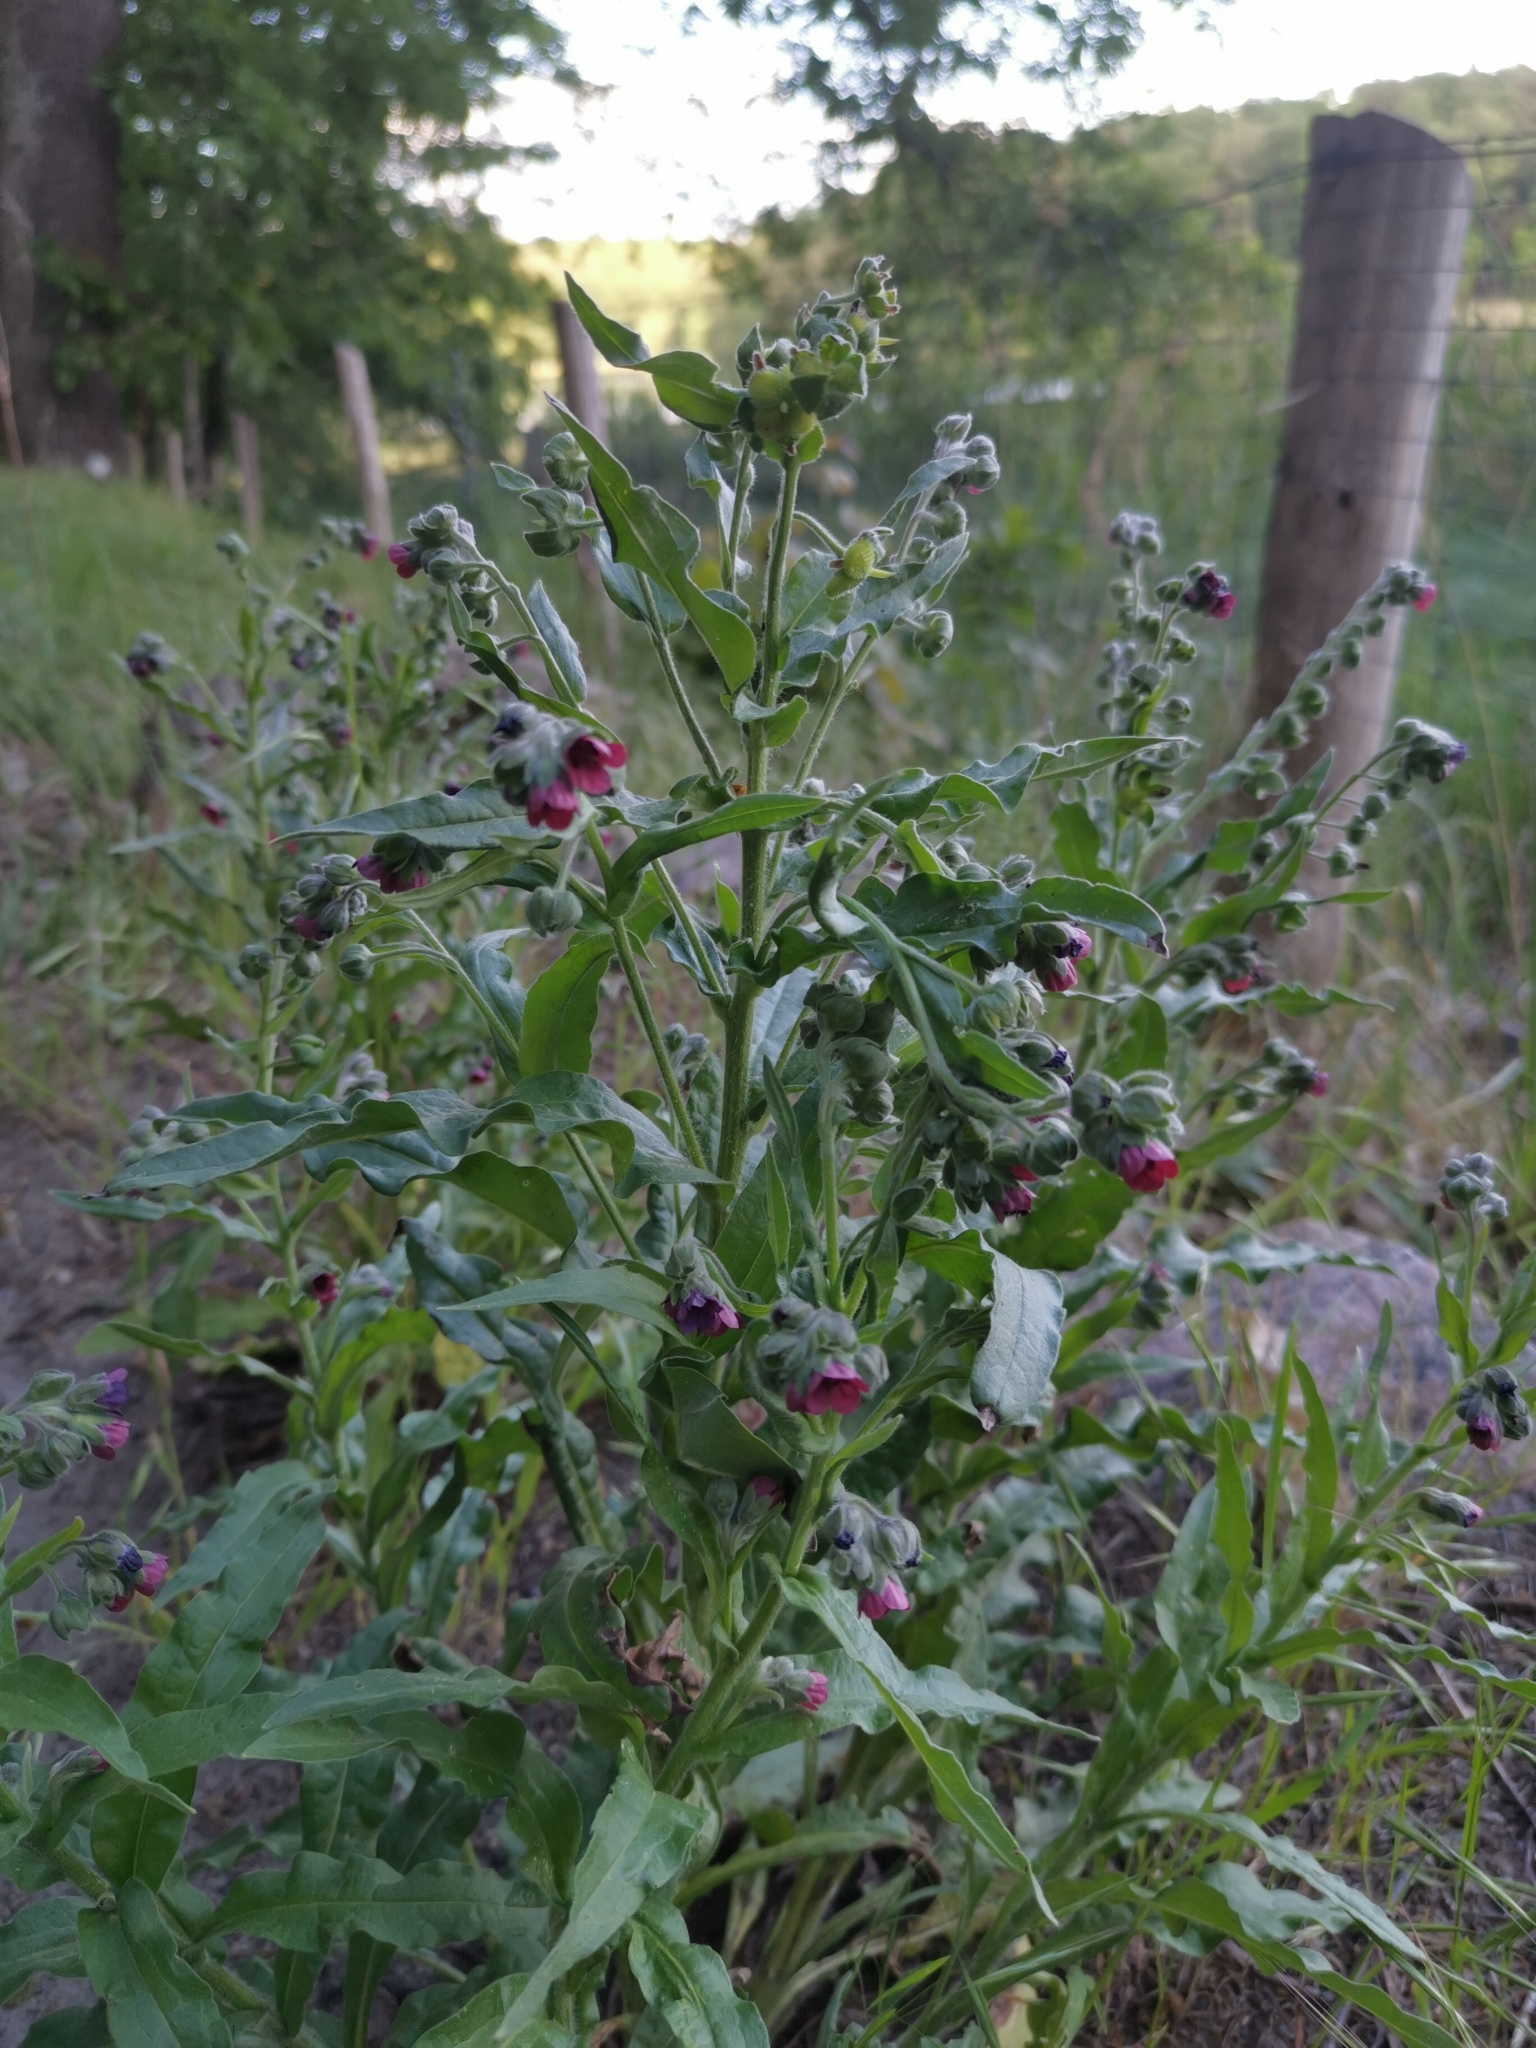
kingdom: Plantae
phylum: Tracheophyta
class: Magnoliopsida
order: Boraginales
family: Boraginaceae
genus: Cynoglossum
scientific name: Cynoglossum officinale
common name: Hound's-tongue
